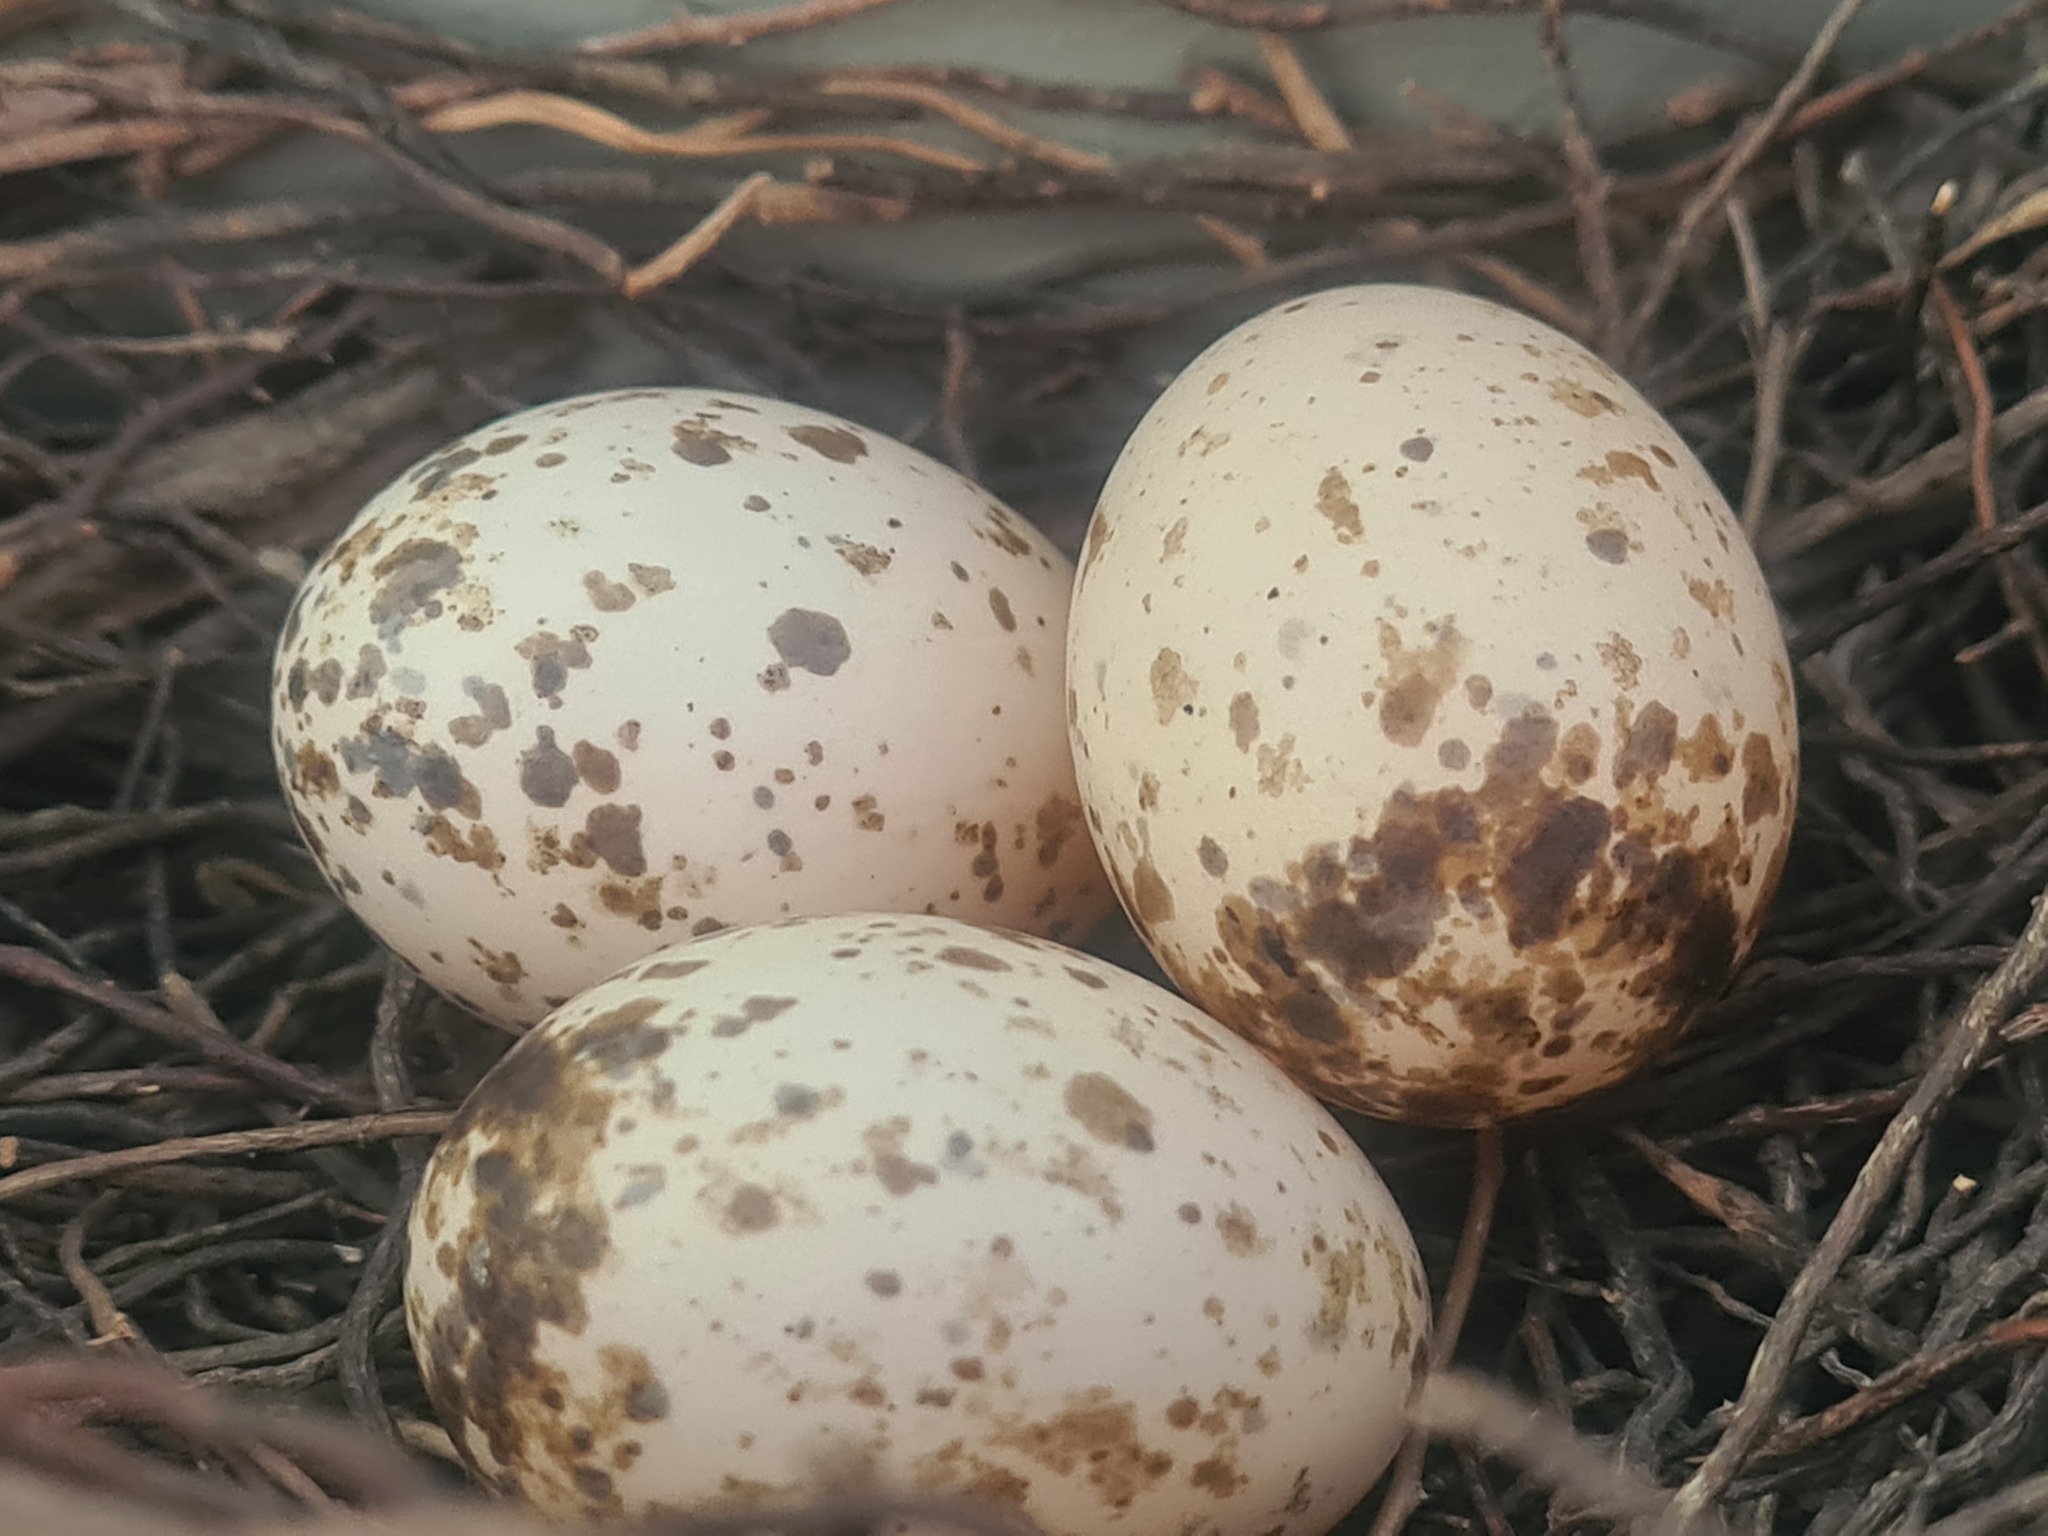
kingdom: Animalia
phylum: Chordata
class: Aves
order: Passeriformes
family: Pachycephalidae
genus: Colluricincla
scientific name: Colluricincla harmonica
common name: Grey shrikethrush
